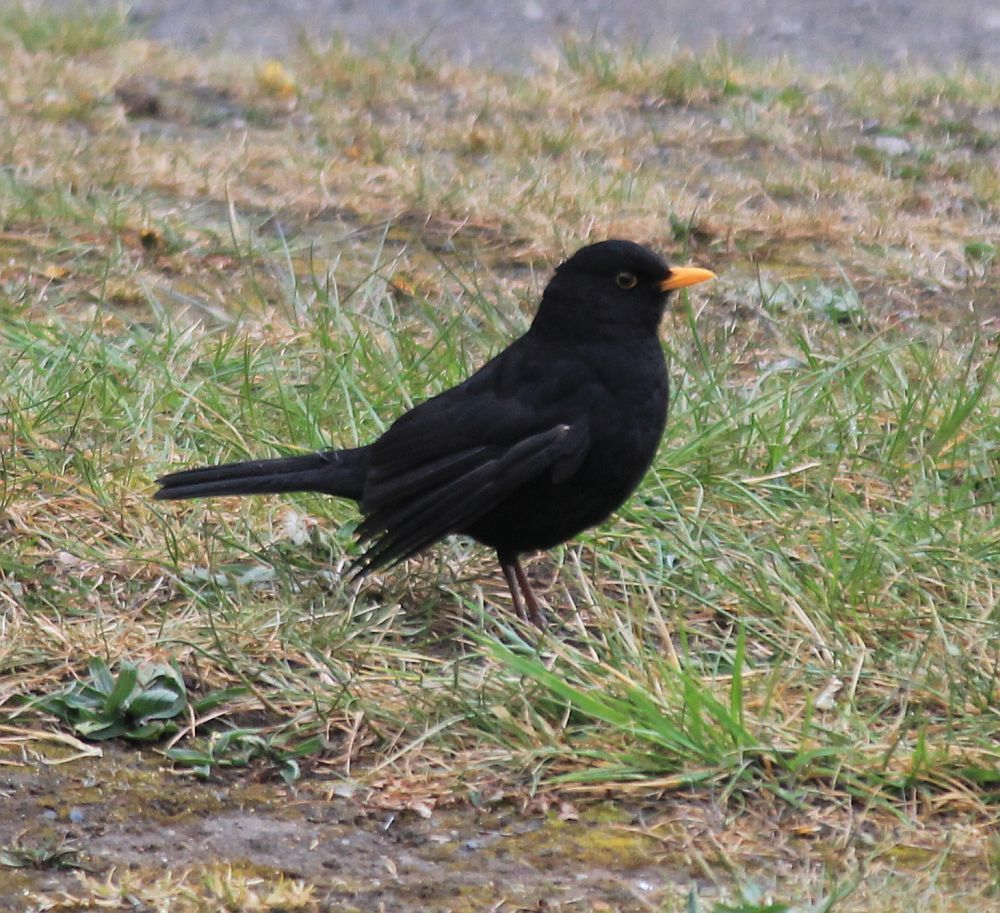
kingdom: Animalia
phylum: Chordata
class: Aves
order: Passeriformes
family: Turdidae
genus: Turdus
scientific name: Turdus merula
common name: Common blackbird
